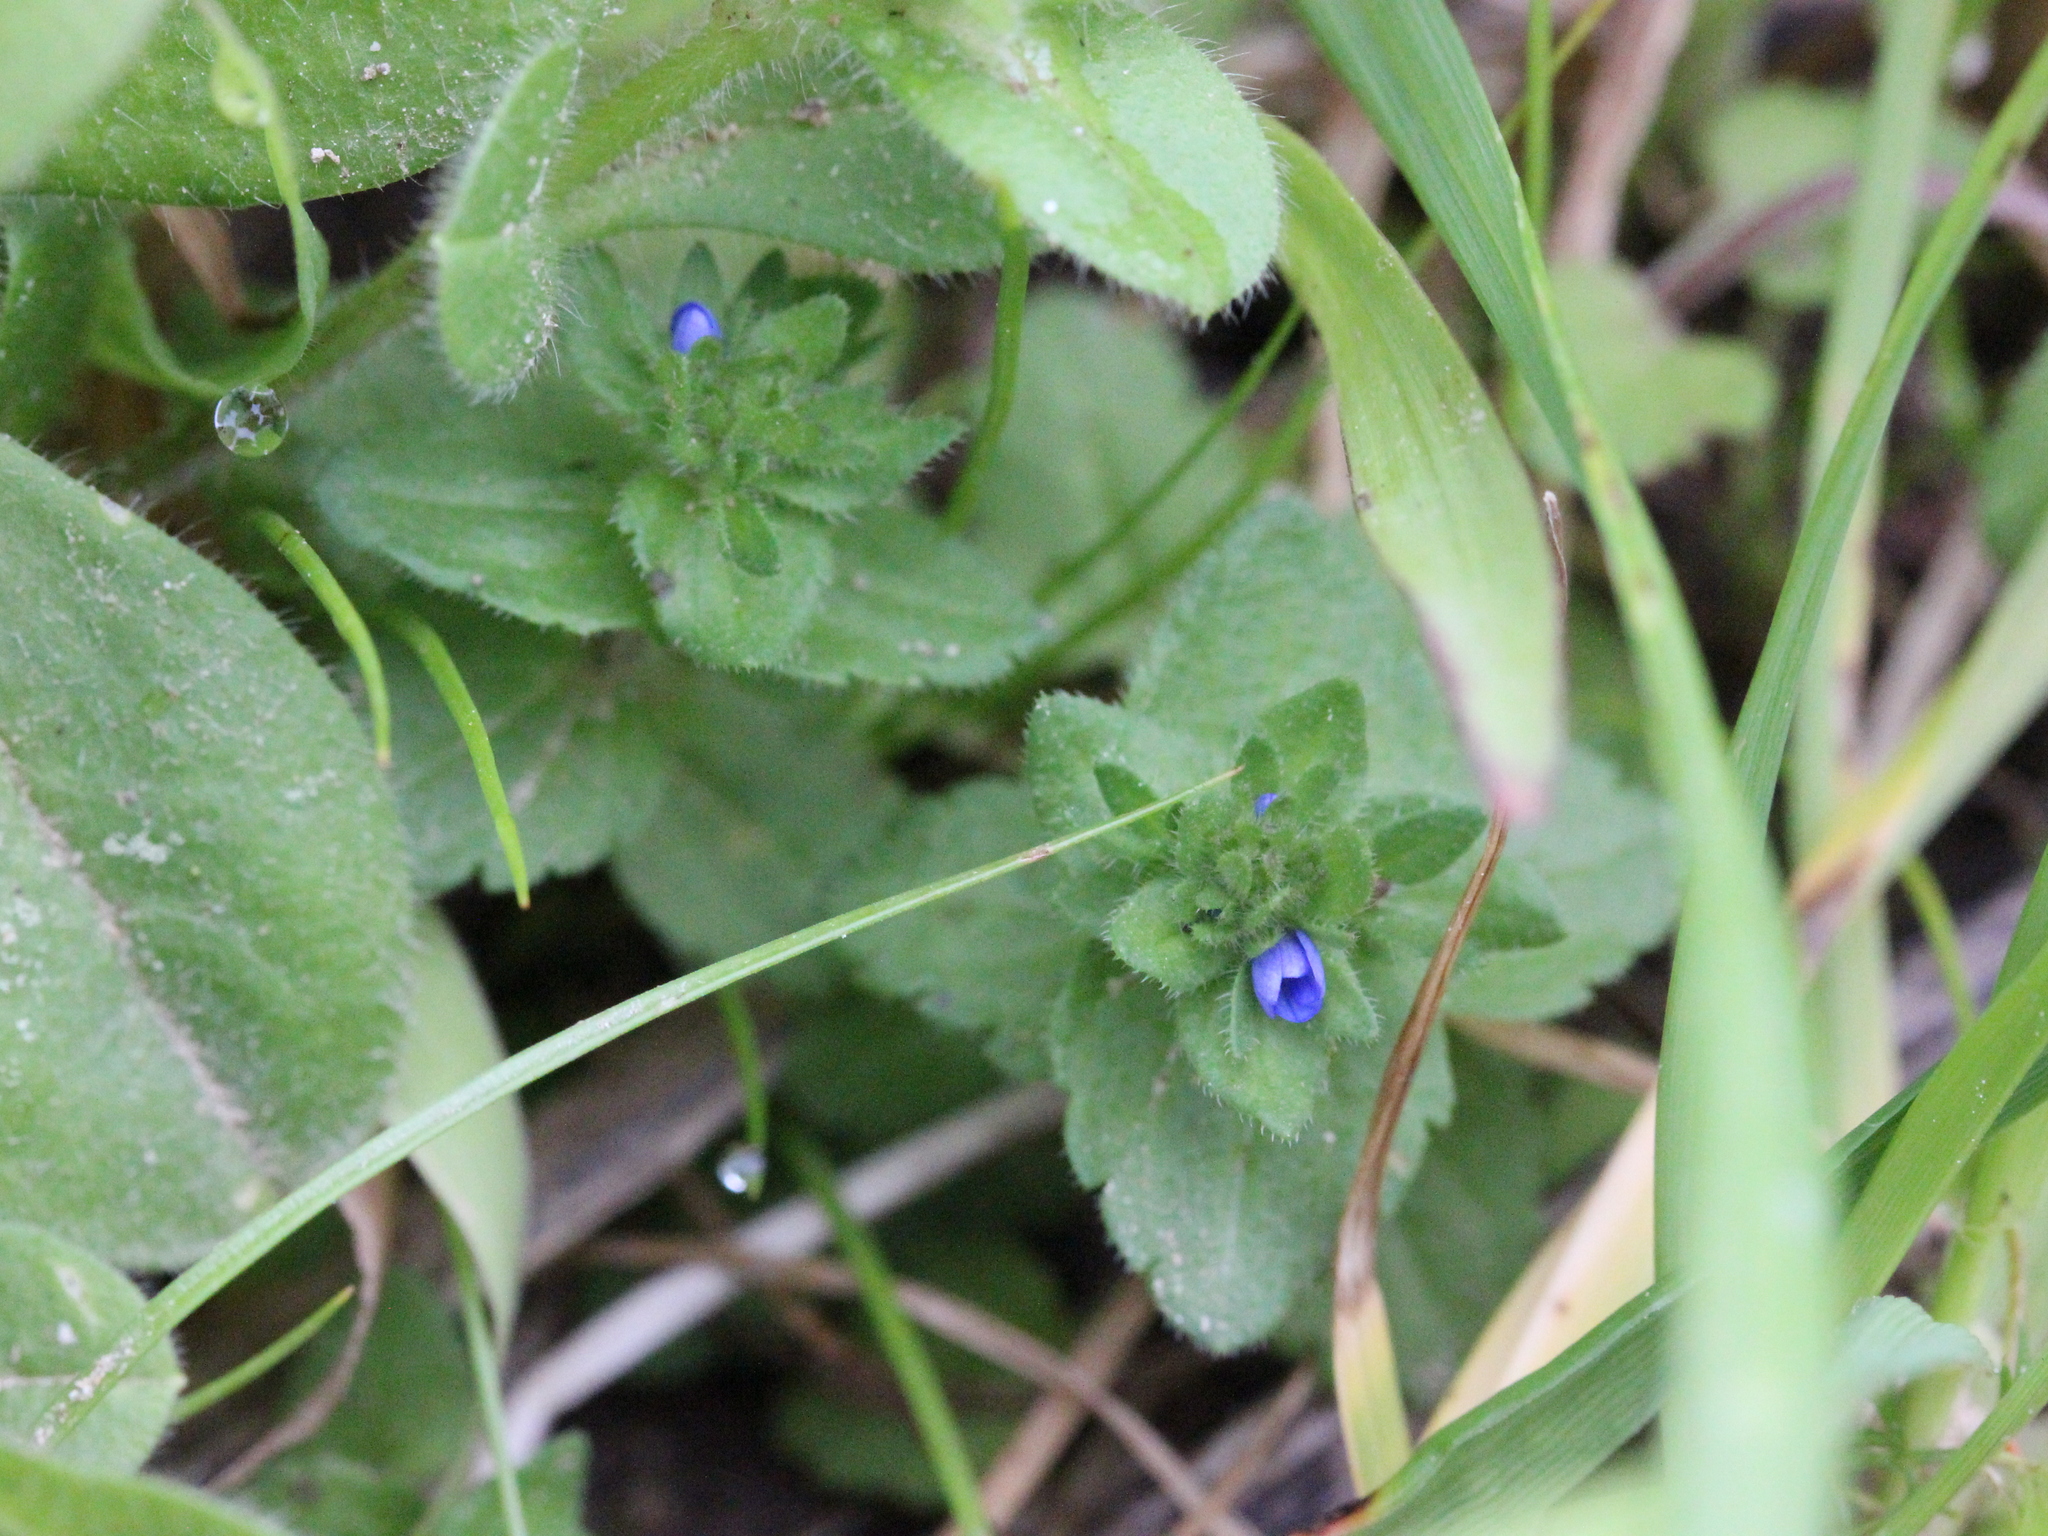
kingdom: Plantae
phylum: Tracheophyta
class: Magnoliopsida
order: Lamiales
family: Plantaginaceae
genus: Veronica
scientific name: Veronica arvensis
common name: Corn speedwell
